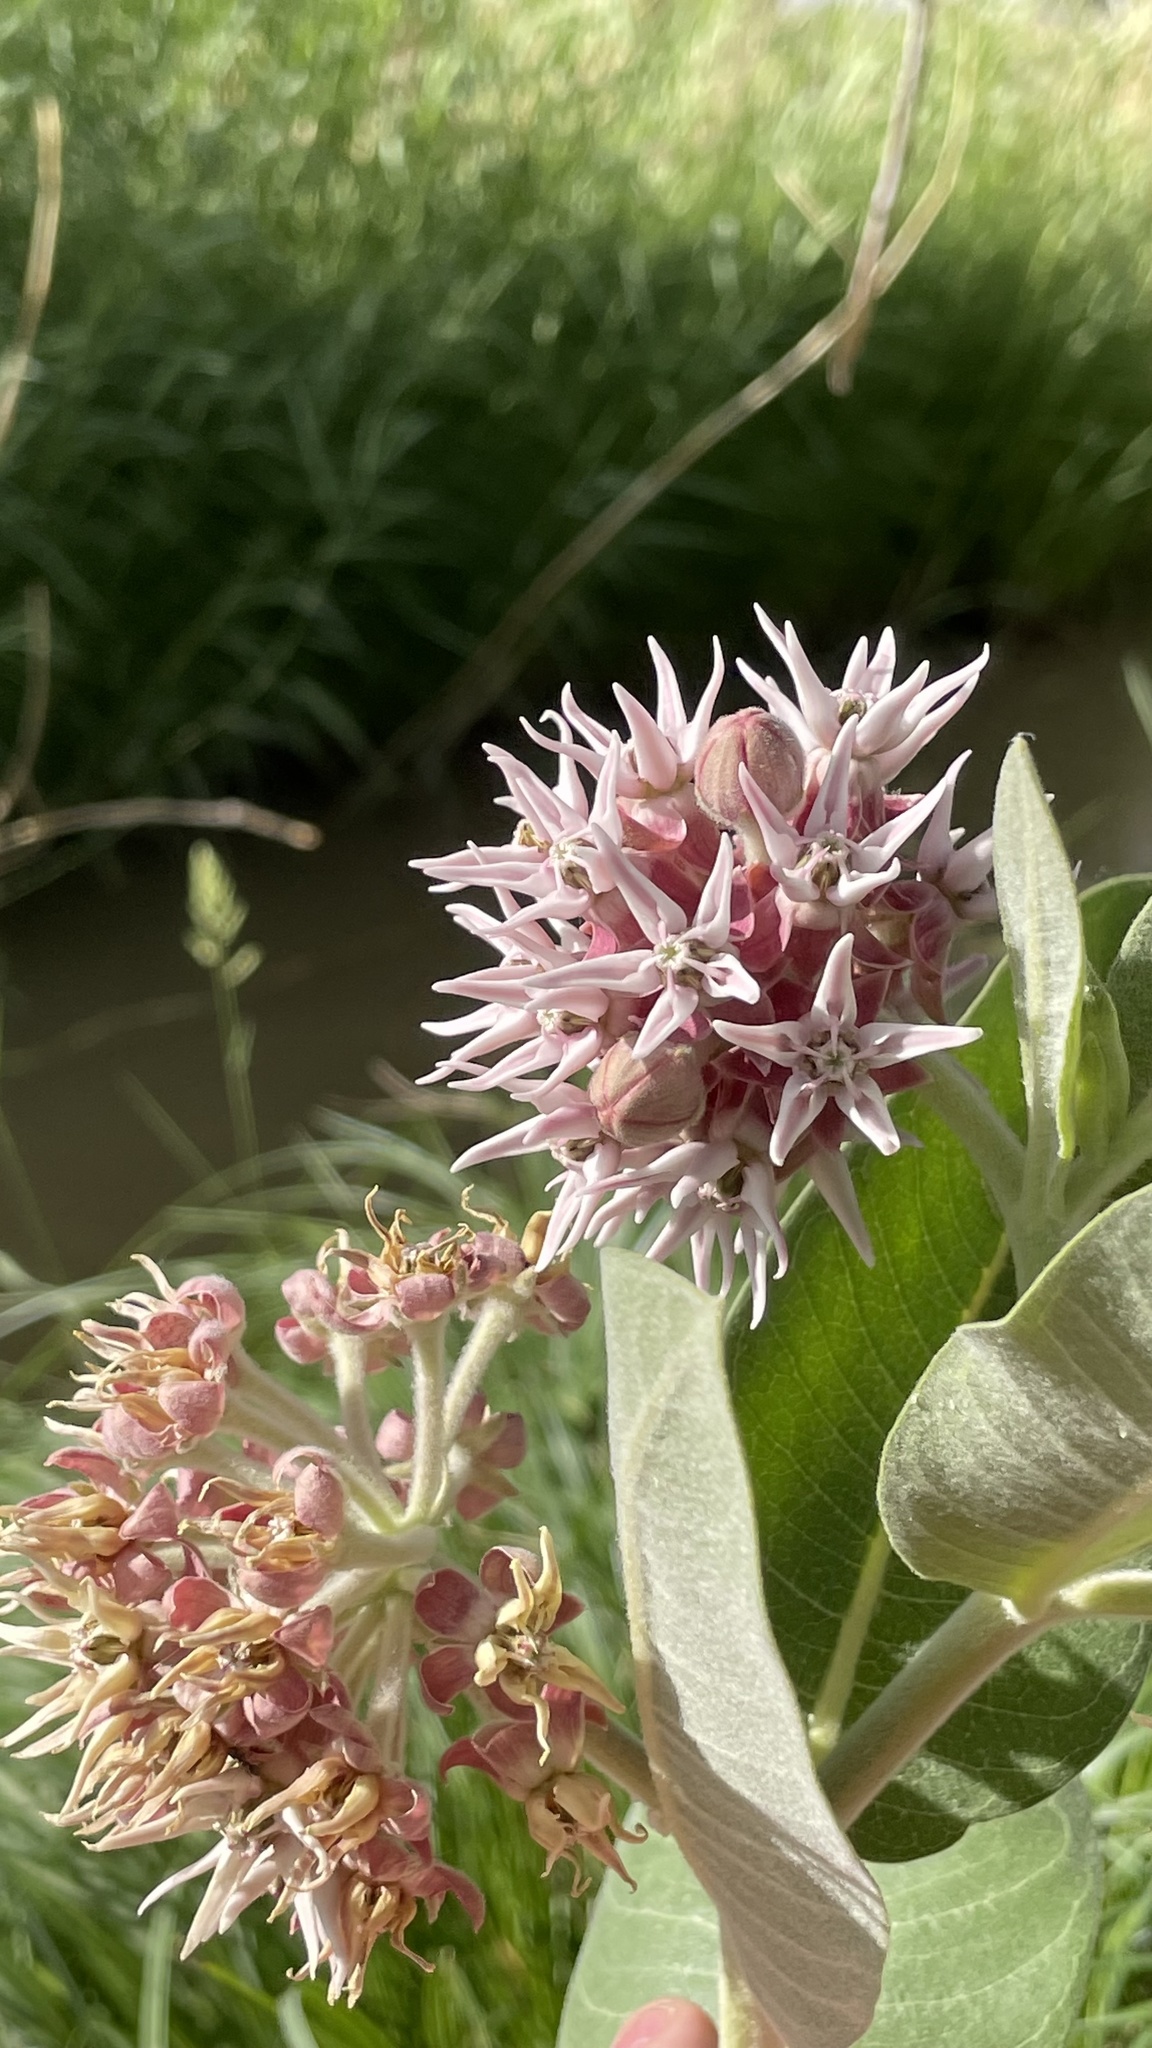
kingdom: Plantae
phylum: Tracheophyta
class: Magnoliopsida
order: Gentianales
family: Apocynaceae
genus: Asclepias
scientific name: Asclepias speciosa
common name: Showy milkweed
